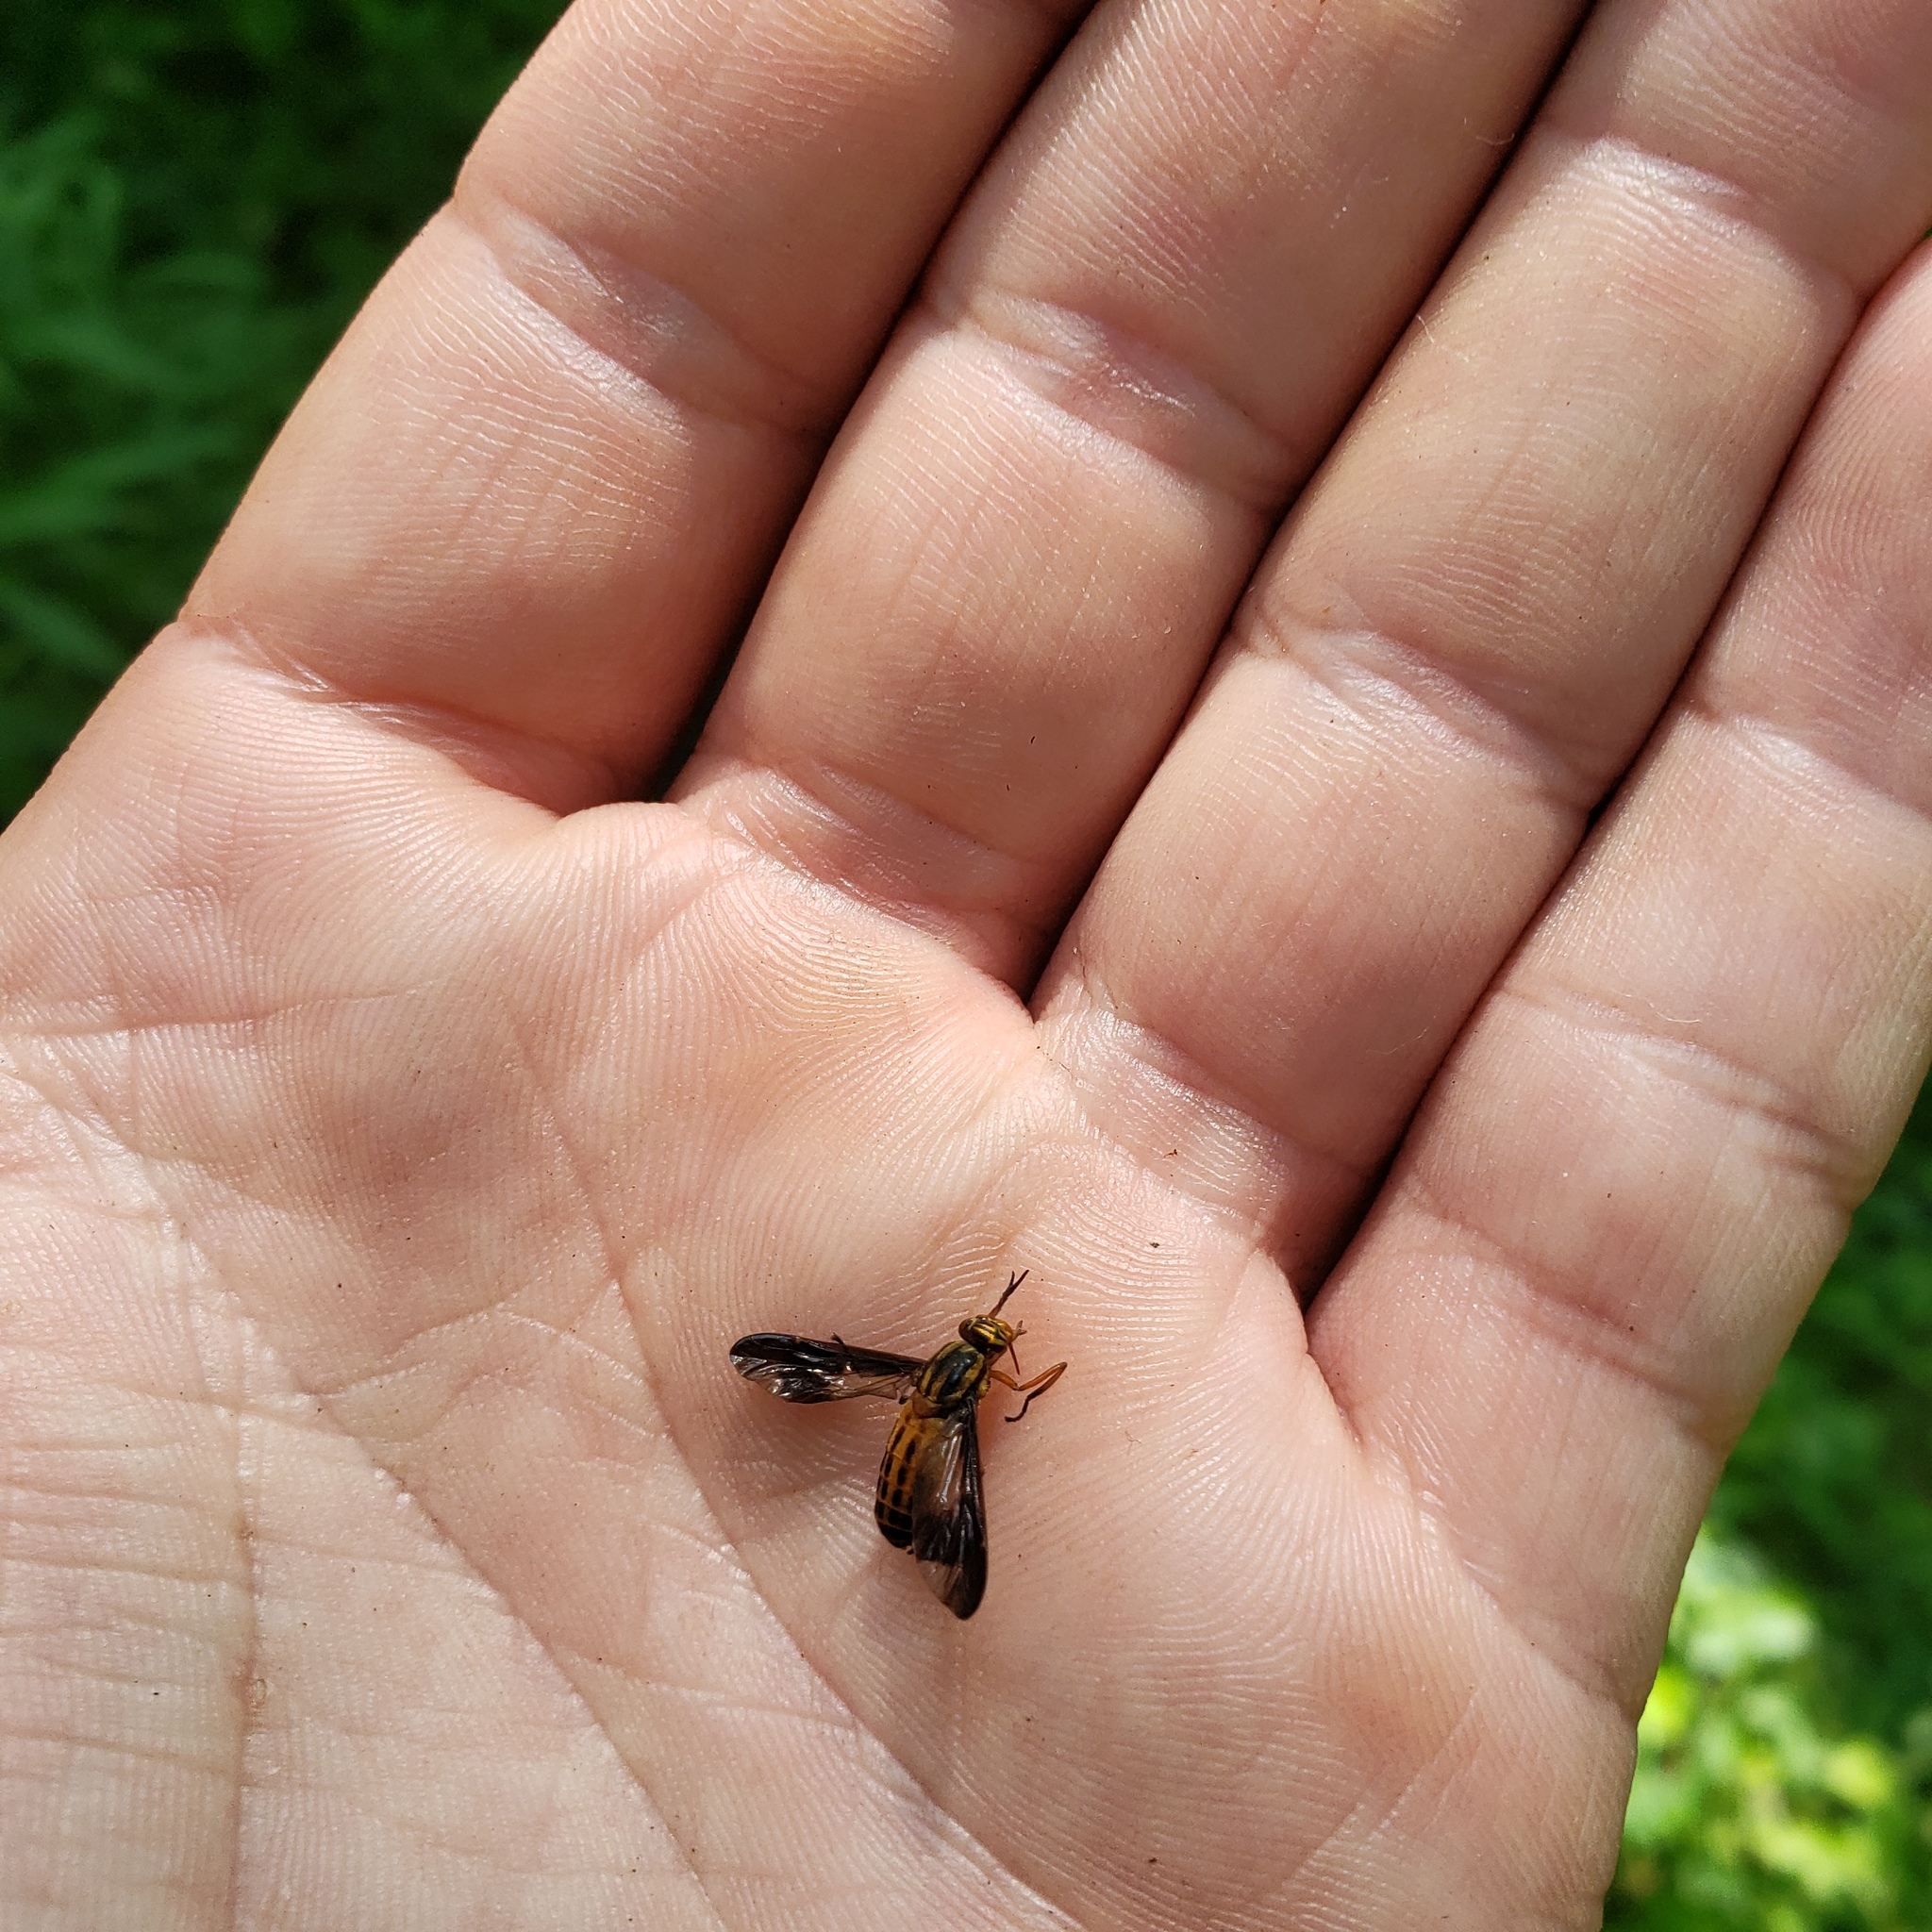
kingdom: Animalia
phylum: Arthropoda
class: Insecta
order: Diptera
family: Tabanidae
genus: Chrysops
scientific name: Chrysops vittatus
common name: Striped deer fly
